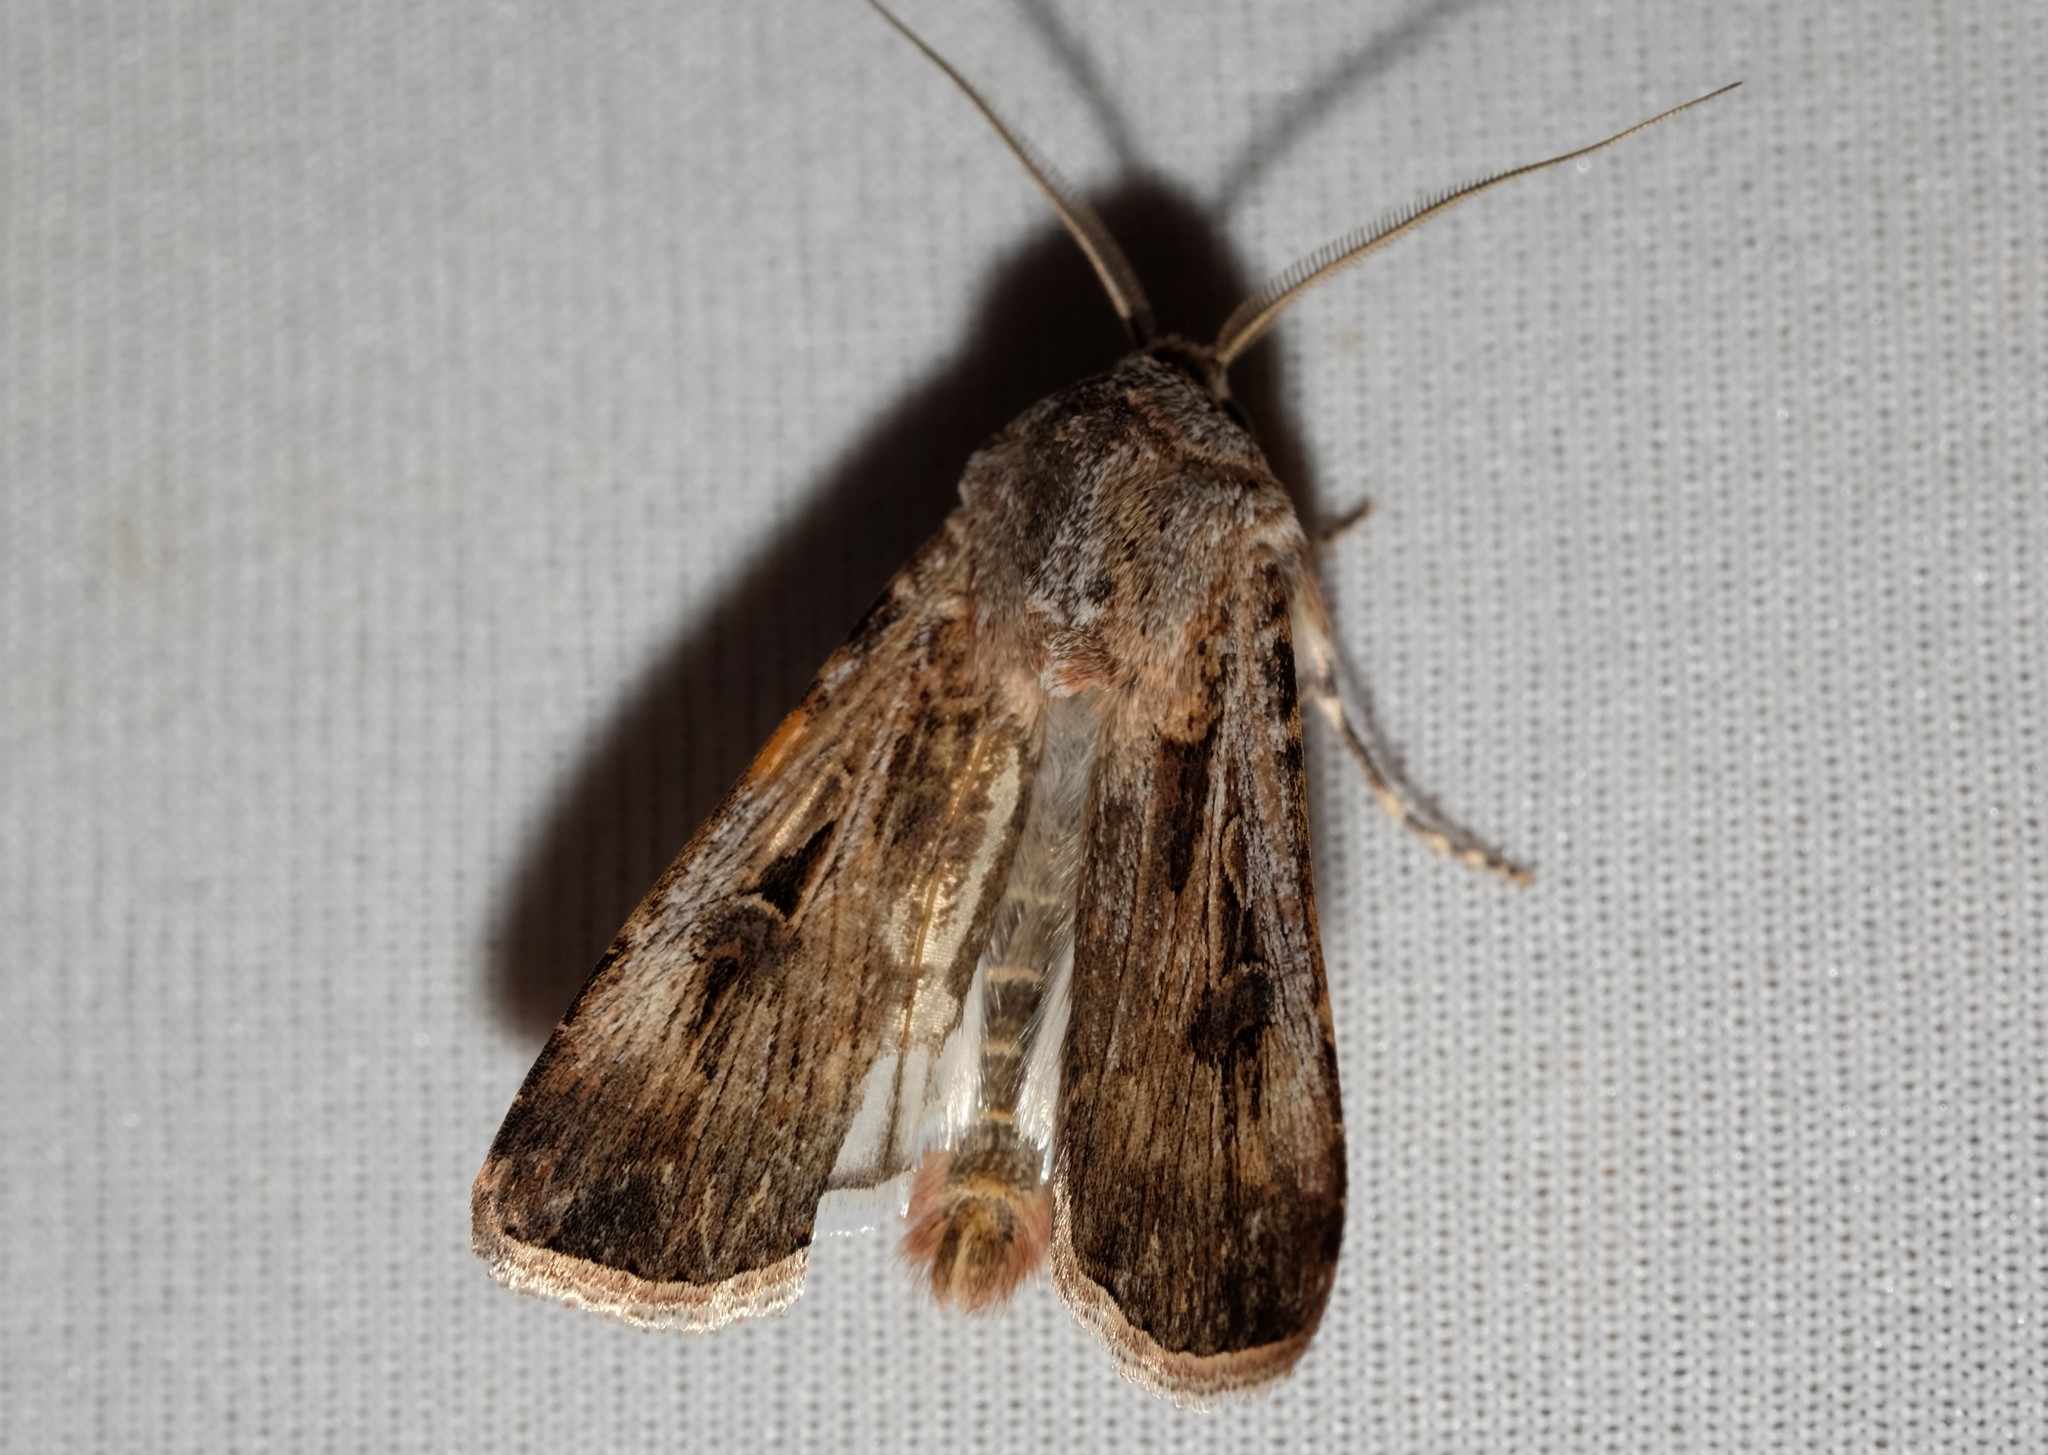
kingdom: Animalia
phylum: Arthropoda
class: Insecta
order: Lepidoptera
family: Noctuidae
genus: Agrotis
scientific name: Agrotis munda
